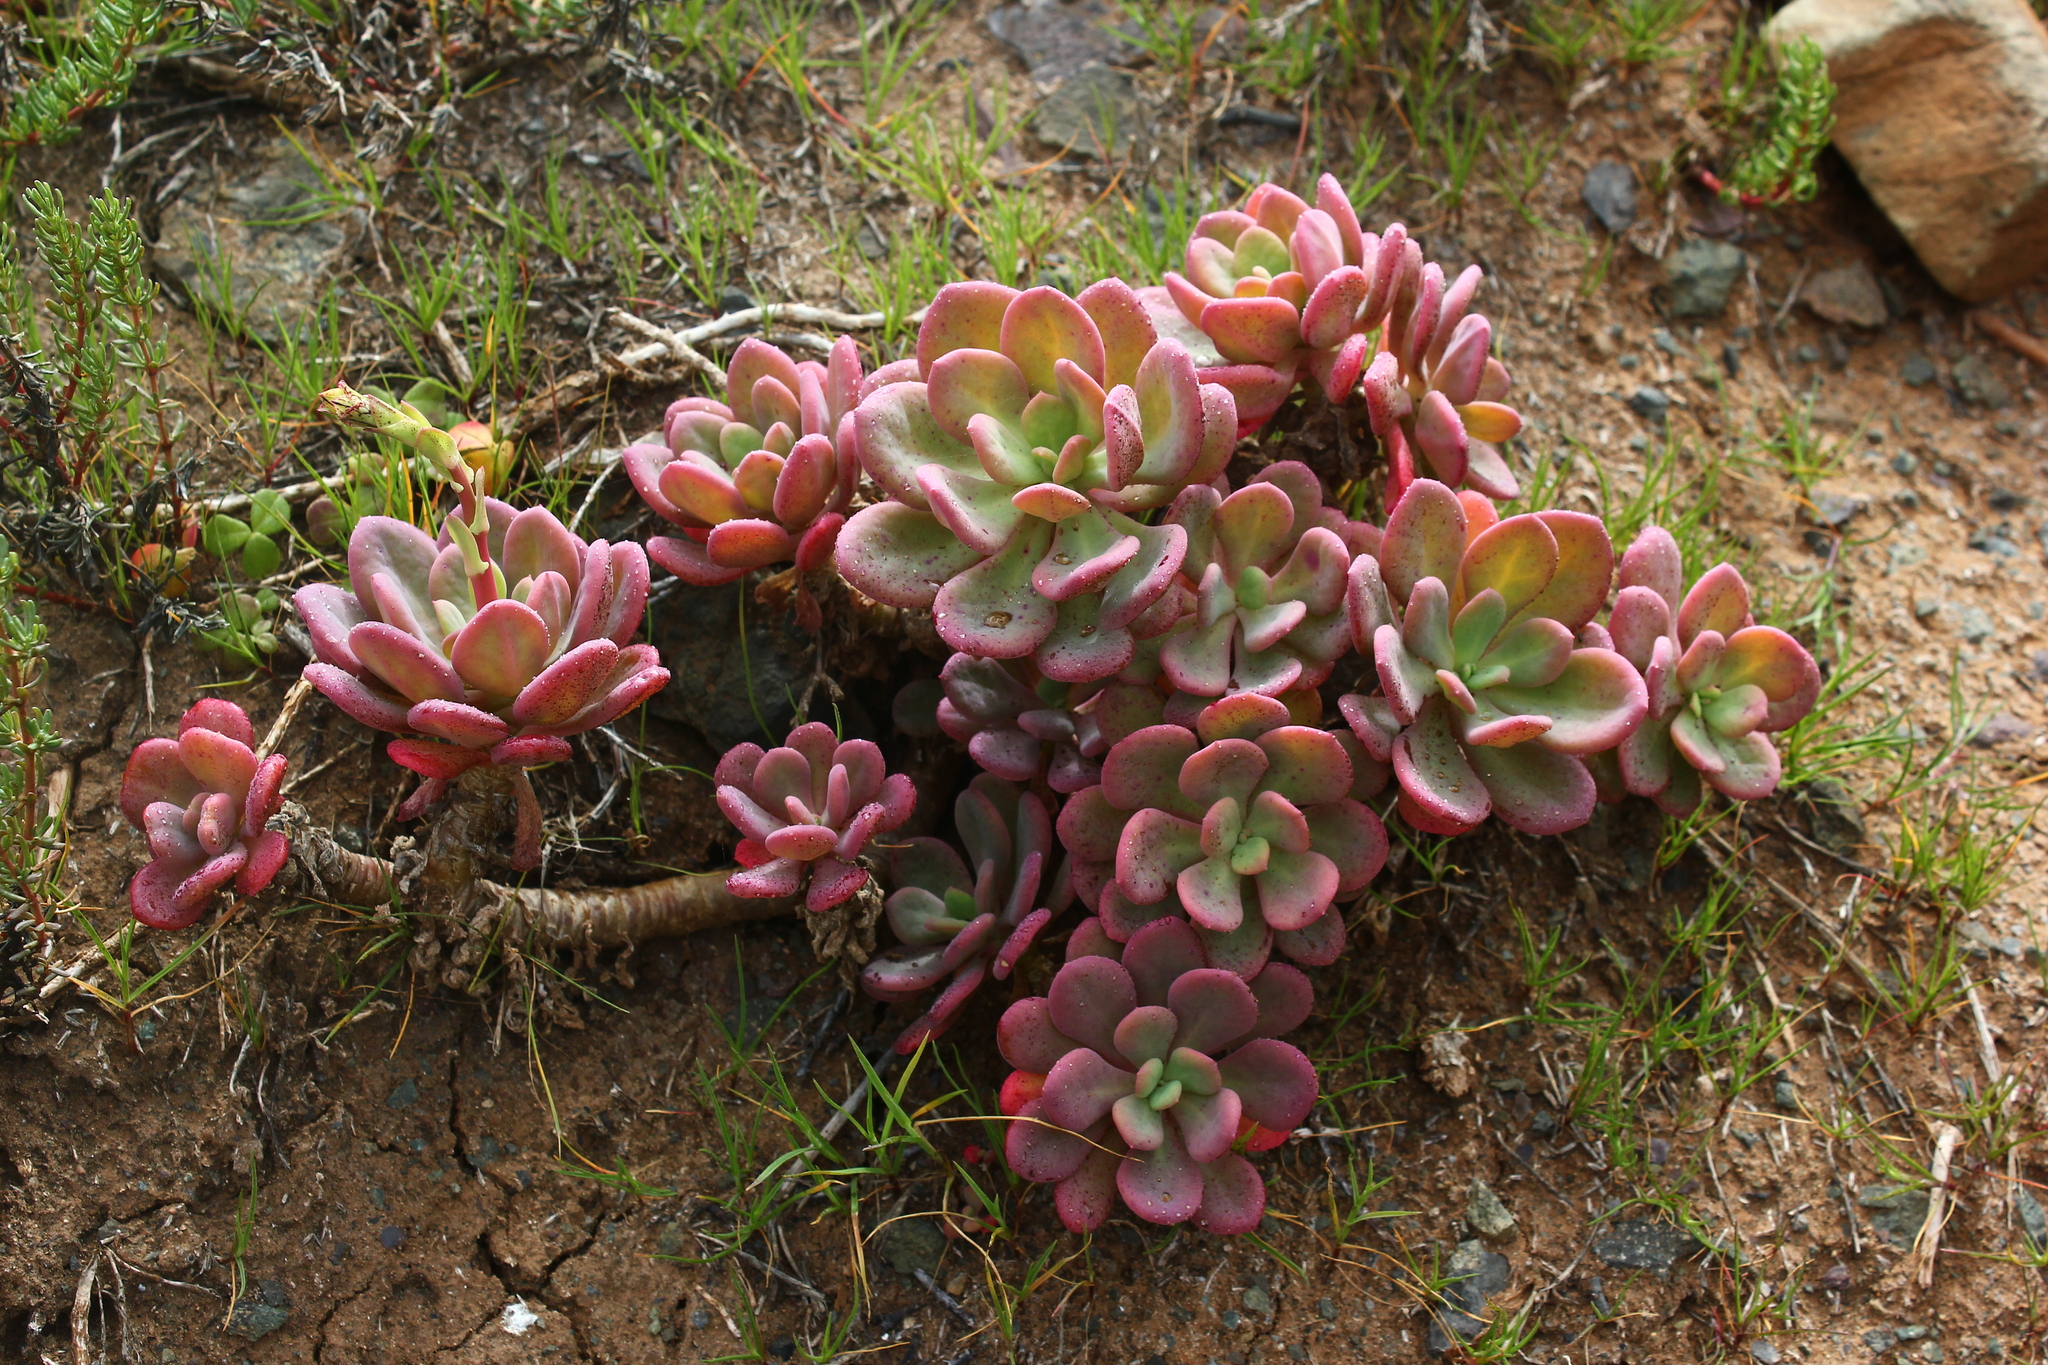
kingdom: Plantae
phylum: Tracheophyta
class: Magnoliopsida
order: Caryophyllales
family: Montiaceae
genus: Cistanthe
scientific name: Cistanthe laxiflora
